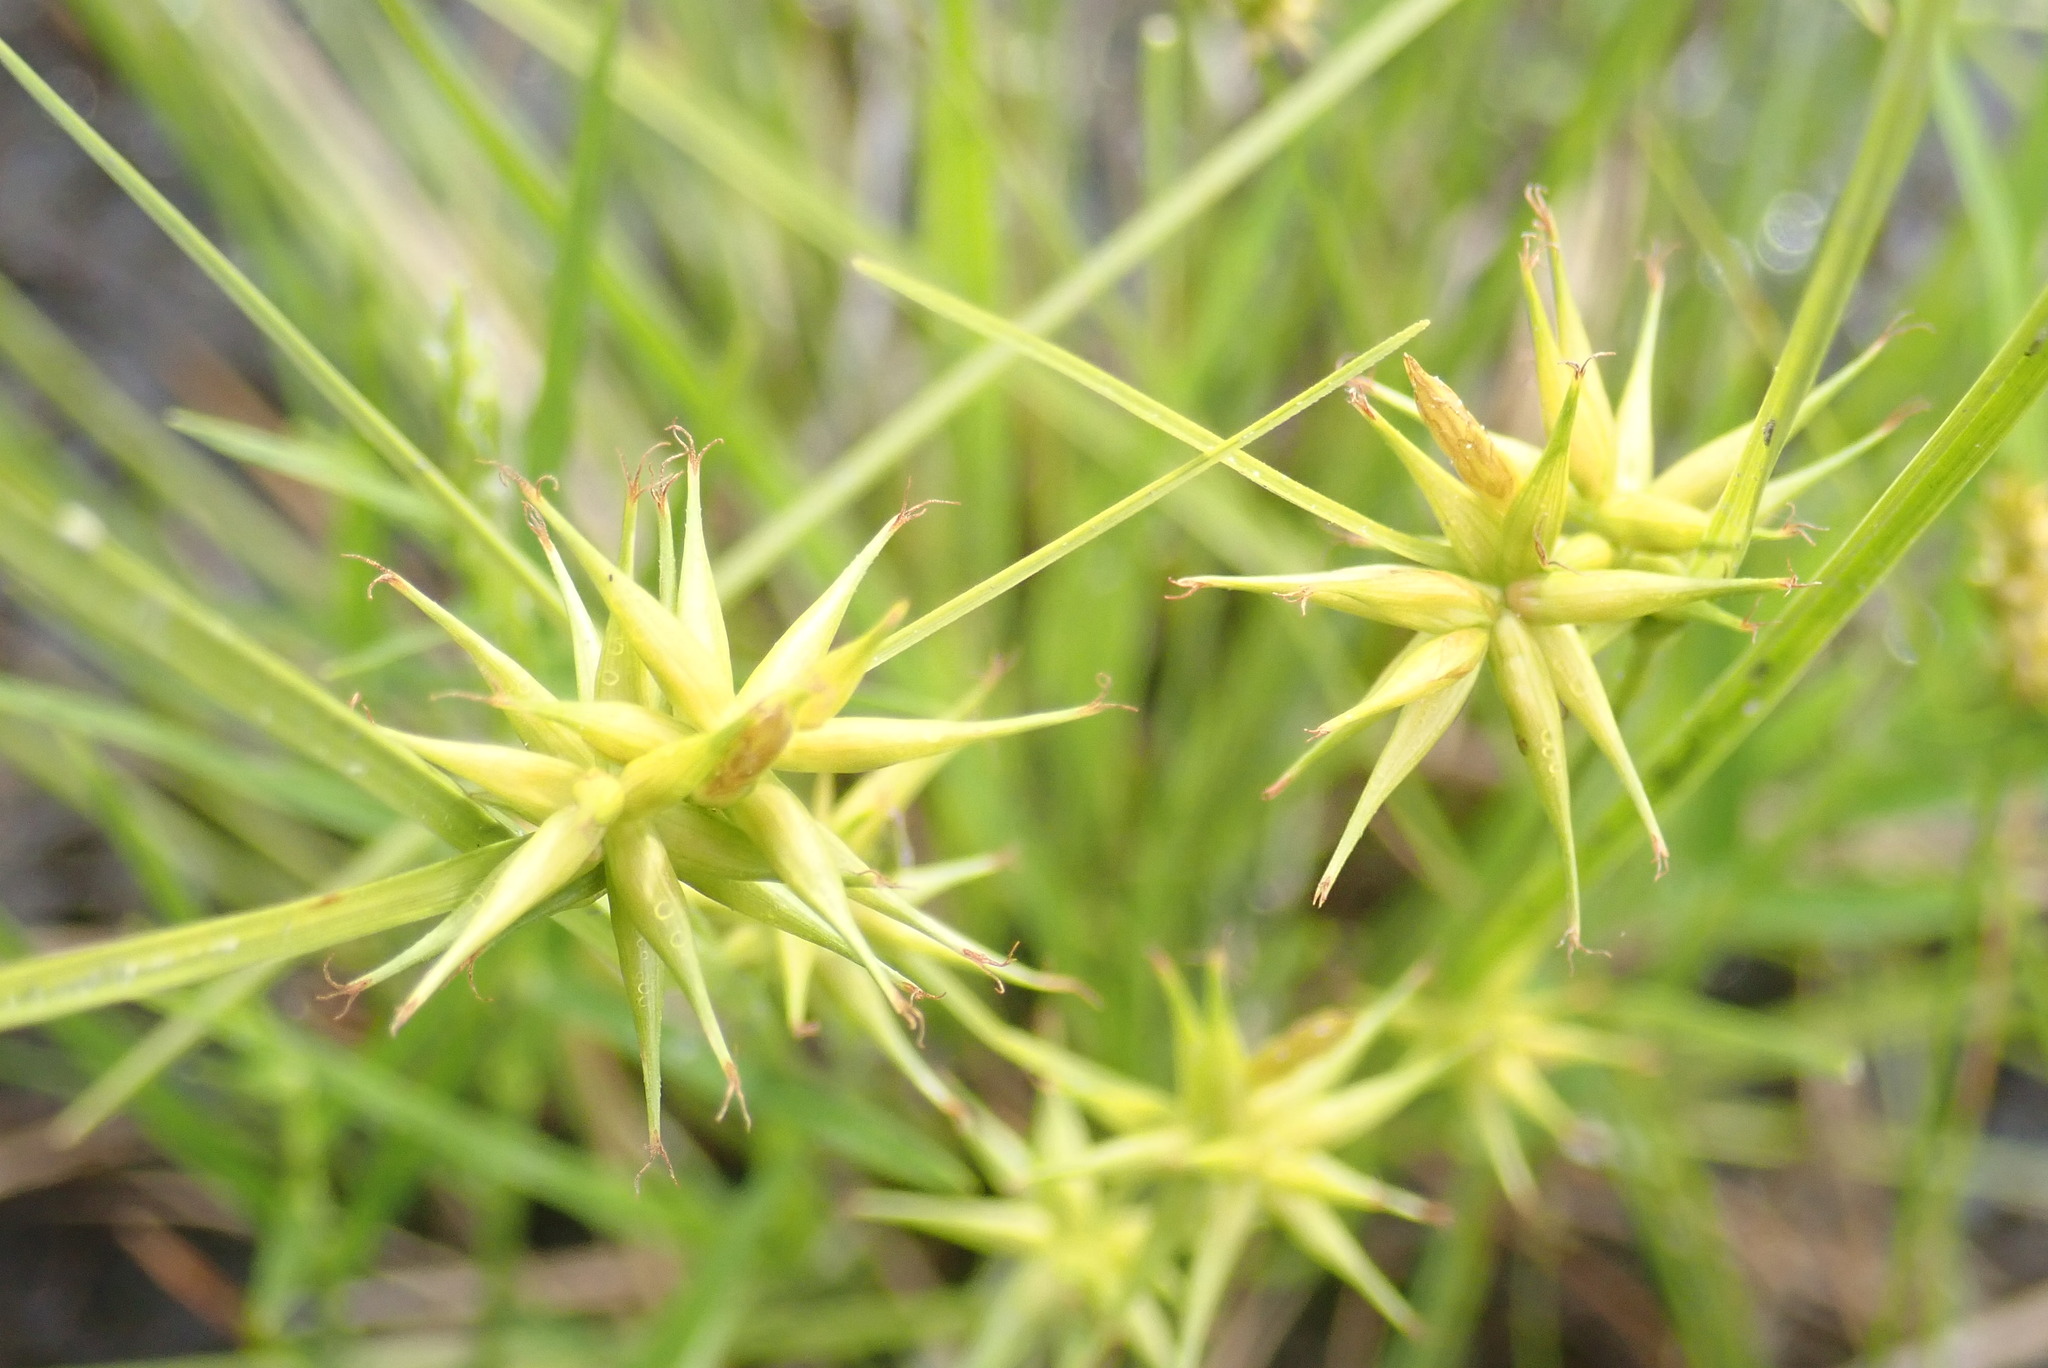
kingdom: Plantae
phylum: Tracheophyta
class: Liliopsida
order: Poales
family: Cyperaceae
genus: Carex
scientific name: Carex michauxiana
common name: Michaux's sedge
